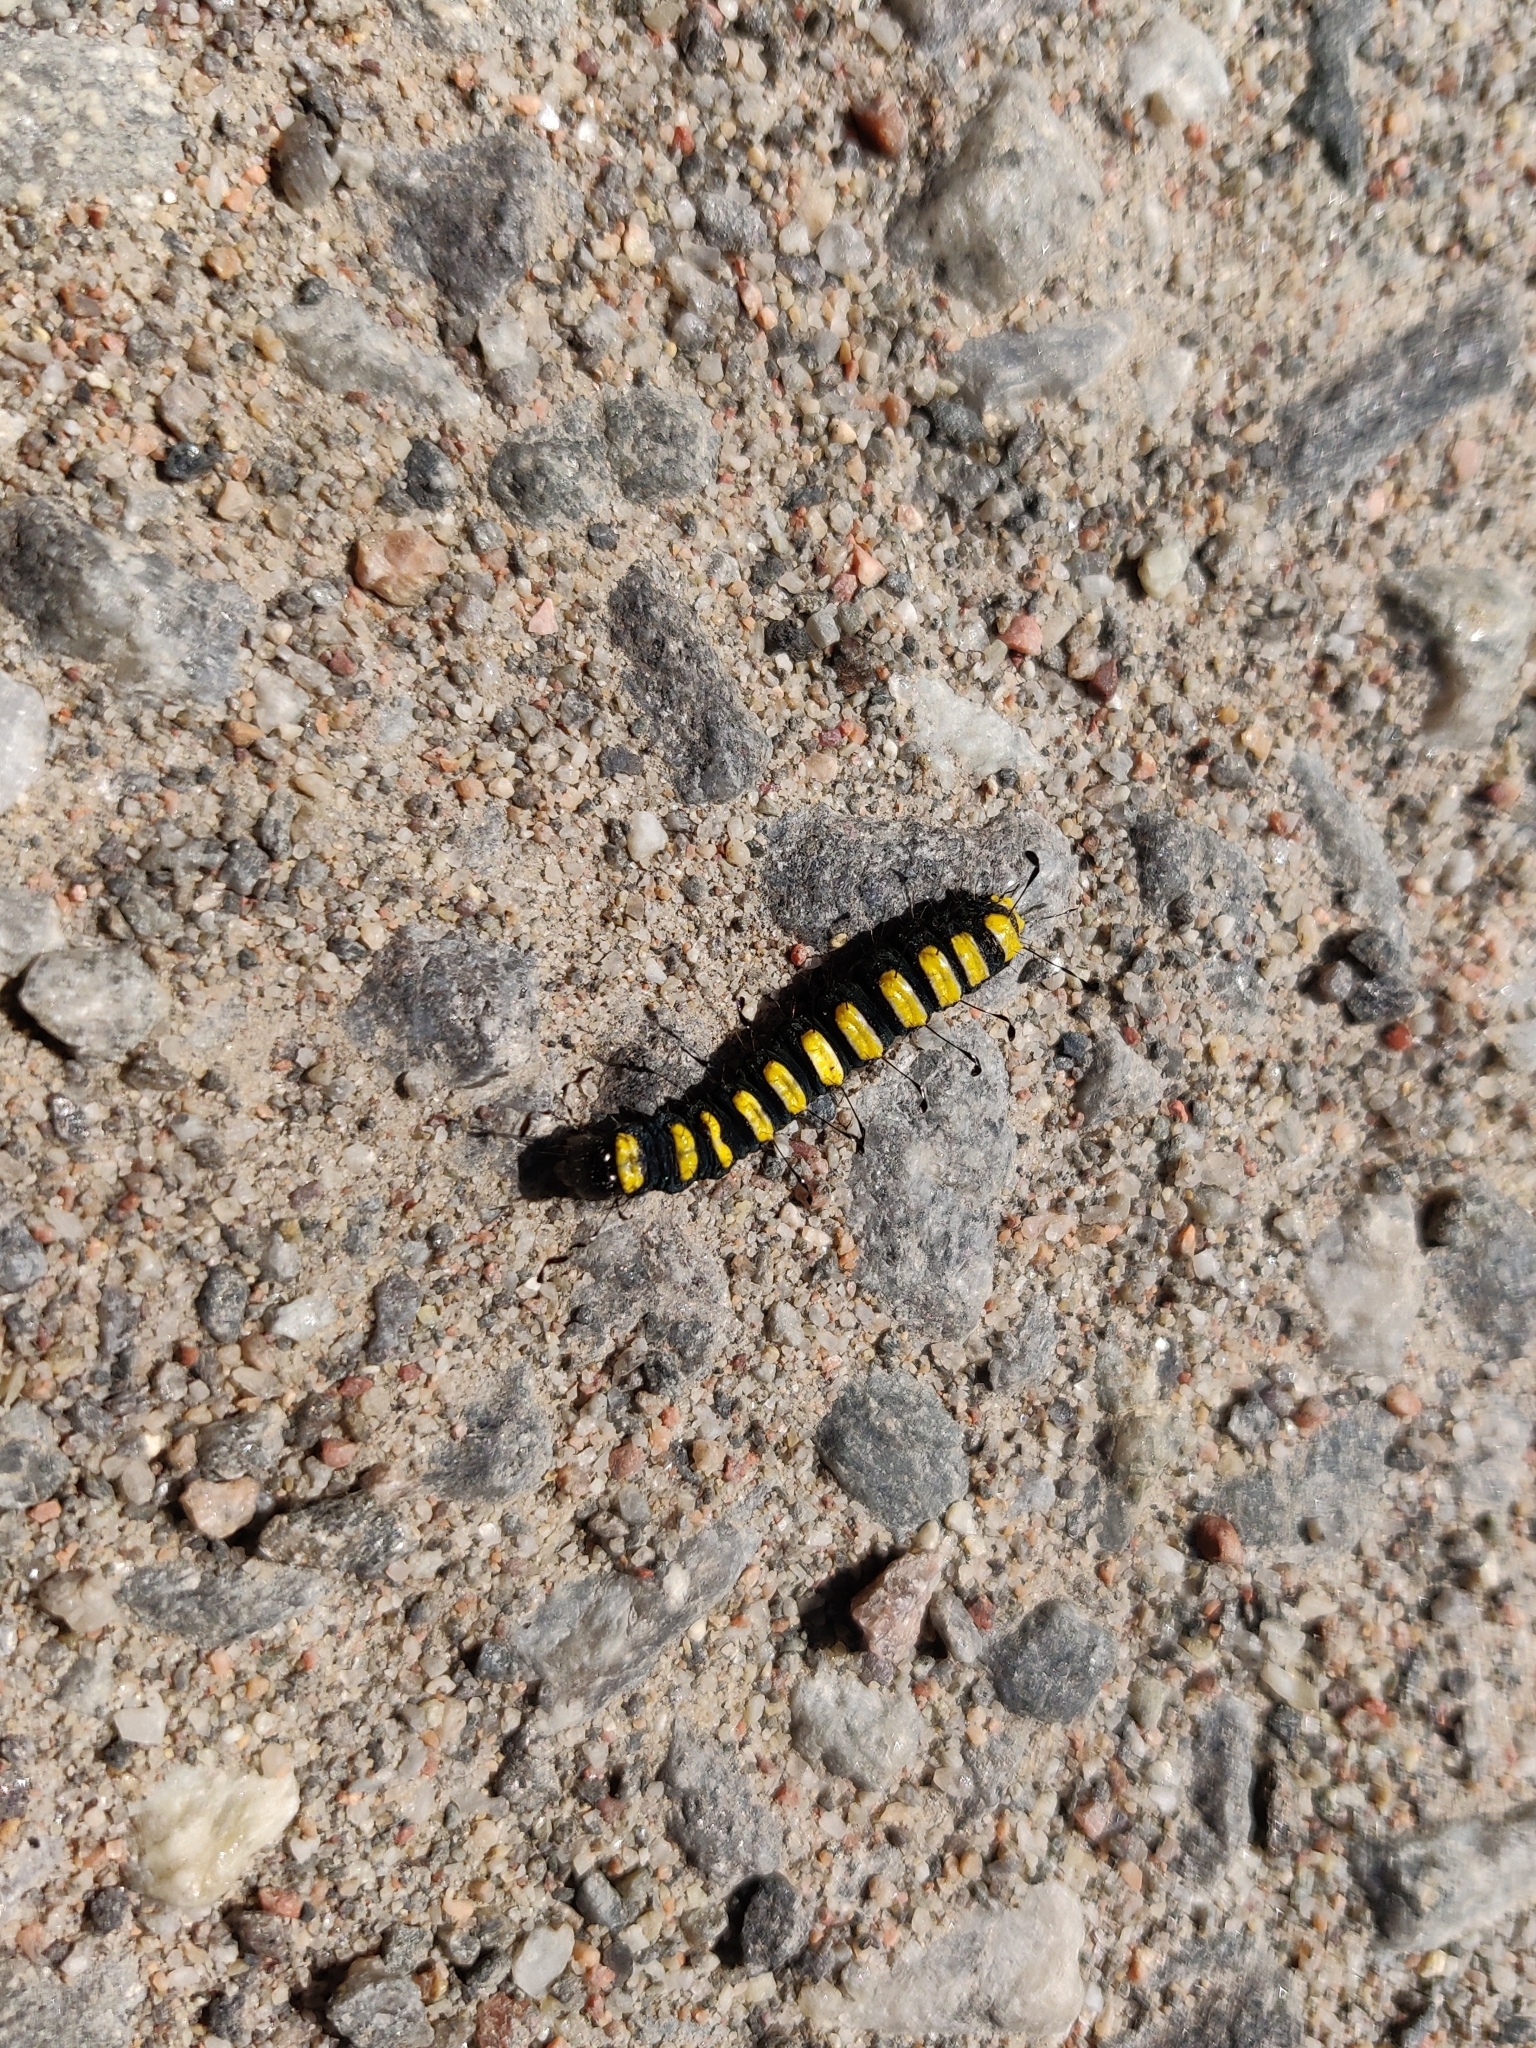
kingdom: Animalia
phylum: Arthropoda
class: Insecta
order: Lepidoptera
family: Noctuidae
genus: Acronicta
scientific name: Acronicta alni
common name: Alder moth
